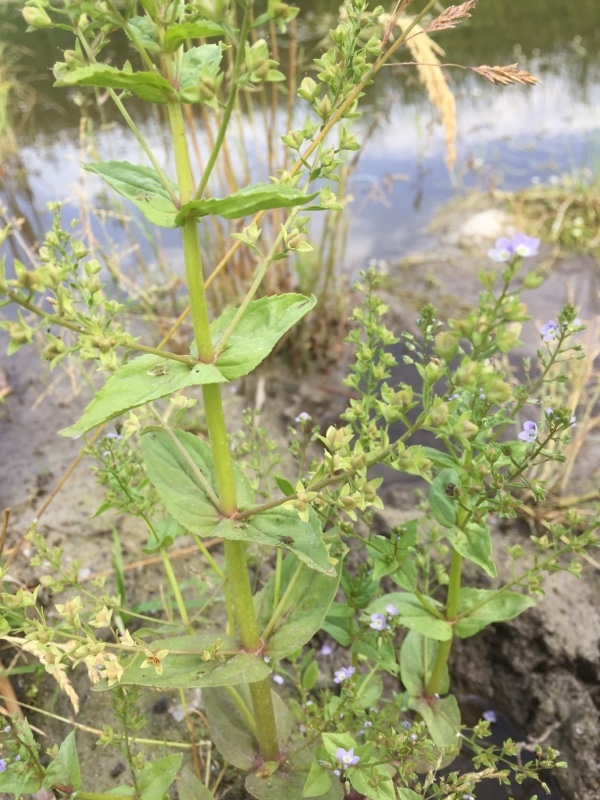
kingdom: Plantae
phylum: Tracheophyta
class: Magnoliopsida
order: Lamiales
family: Plantaginaceae
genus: Veronica
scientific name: Veronica anagallis-aquatica
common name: Water speedwell
